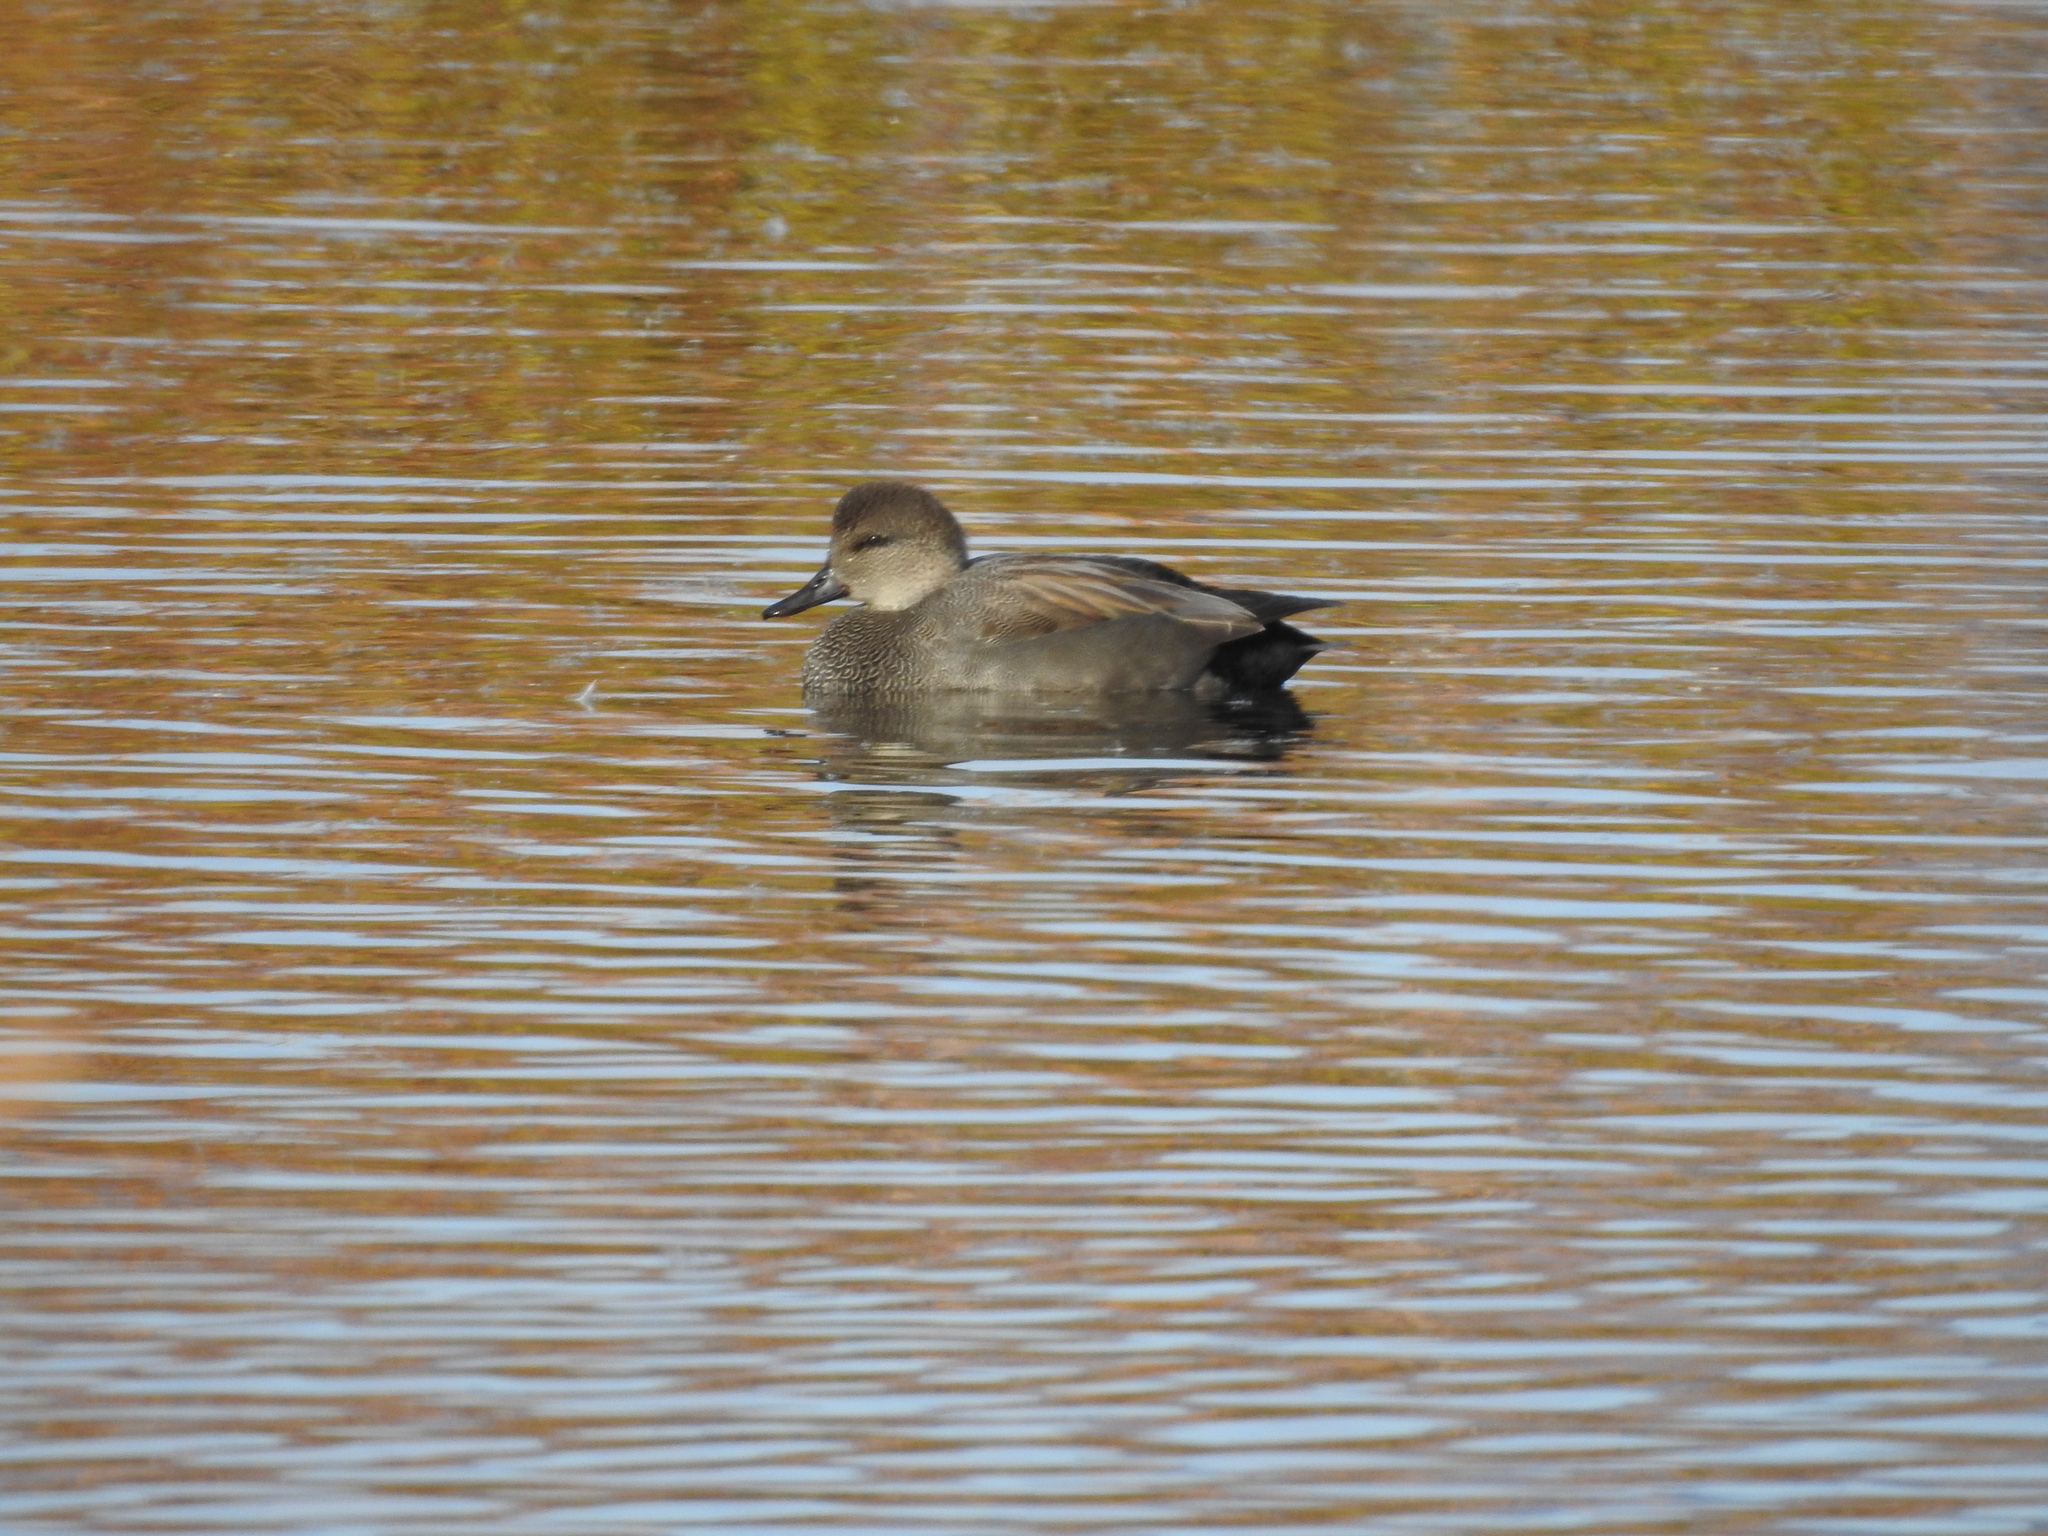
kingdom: Animalia
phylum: Chordata
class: Aves
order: Anseriformes
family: Anatidae
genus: Mareca
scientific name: Mareca strepera
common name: Gadwall
